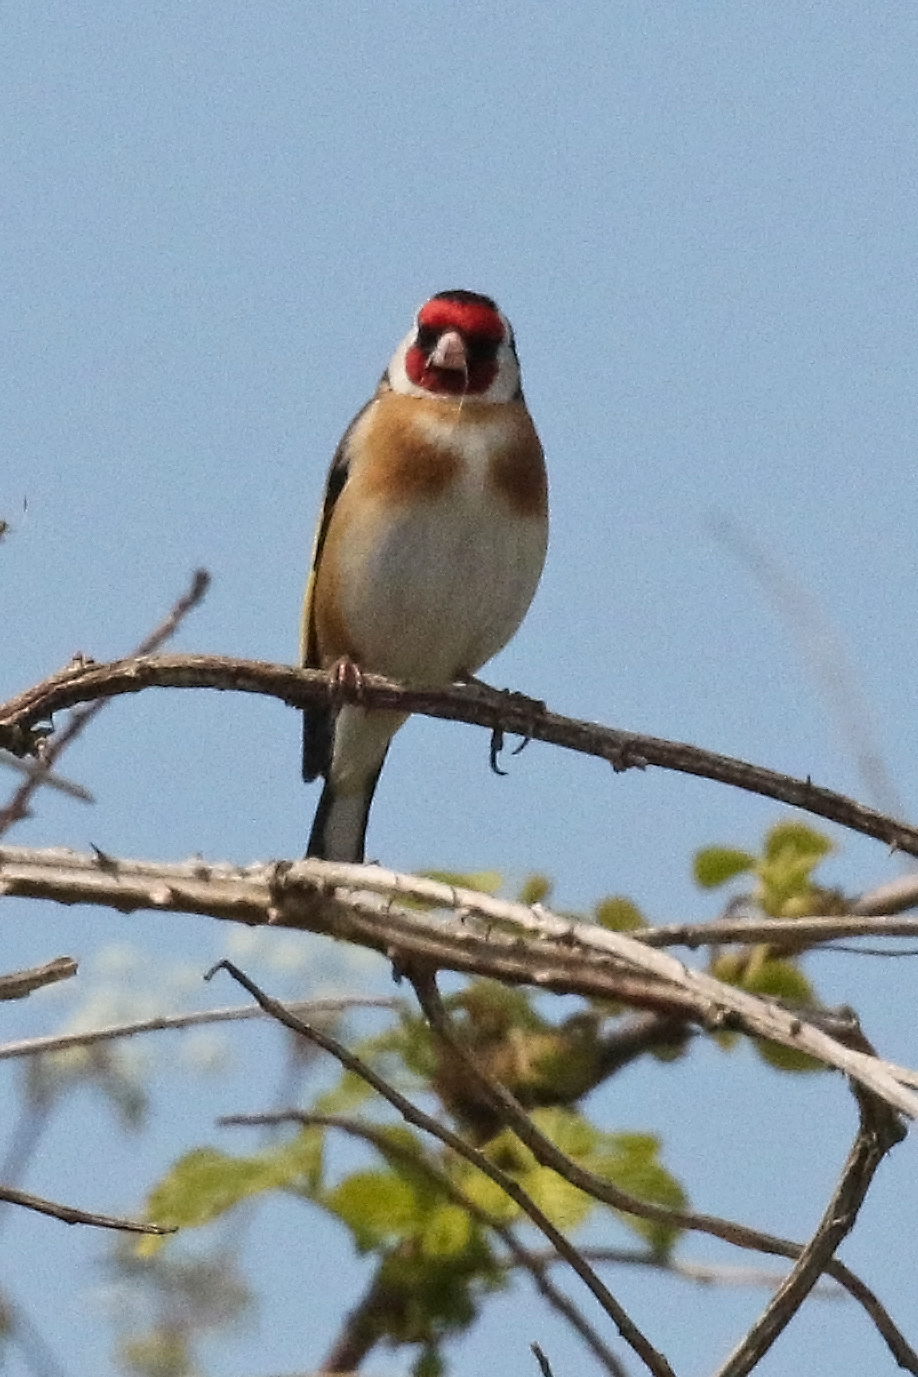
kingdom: Animalia
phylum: Chordata
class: Aves
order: Passeriformes
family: Fringillidae
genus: Carduelis
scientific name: Carduelis carduelis
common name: European goldfinch
